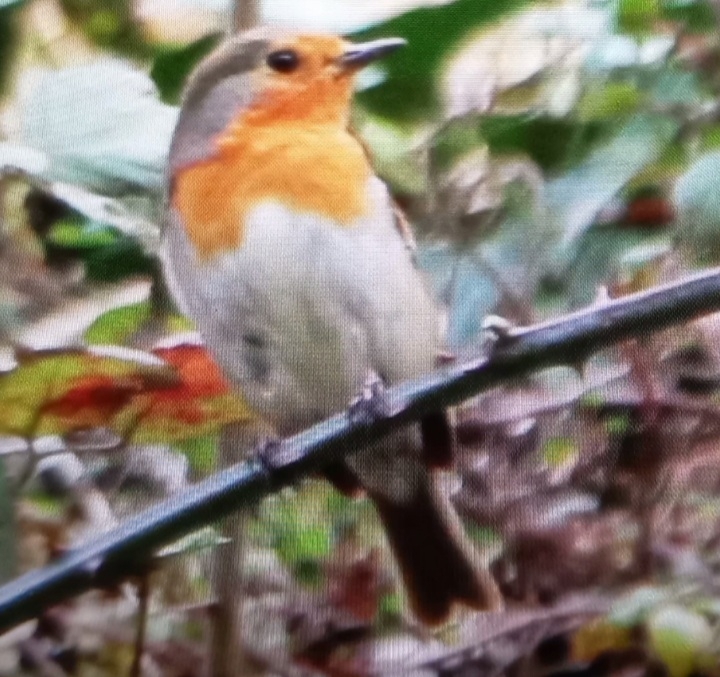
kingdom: Animalia
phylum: Chordata
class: Aves
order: Passeriformes
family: Muscicapidae
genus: Erithacus
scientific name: Erithacus rubecula
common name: European robin
